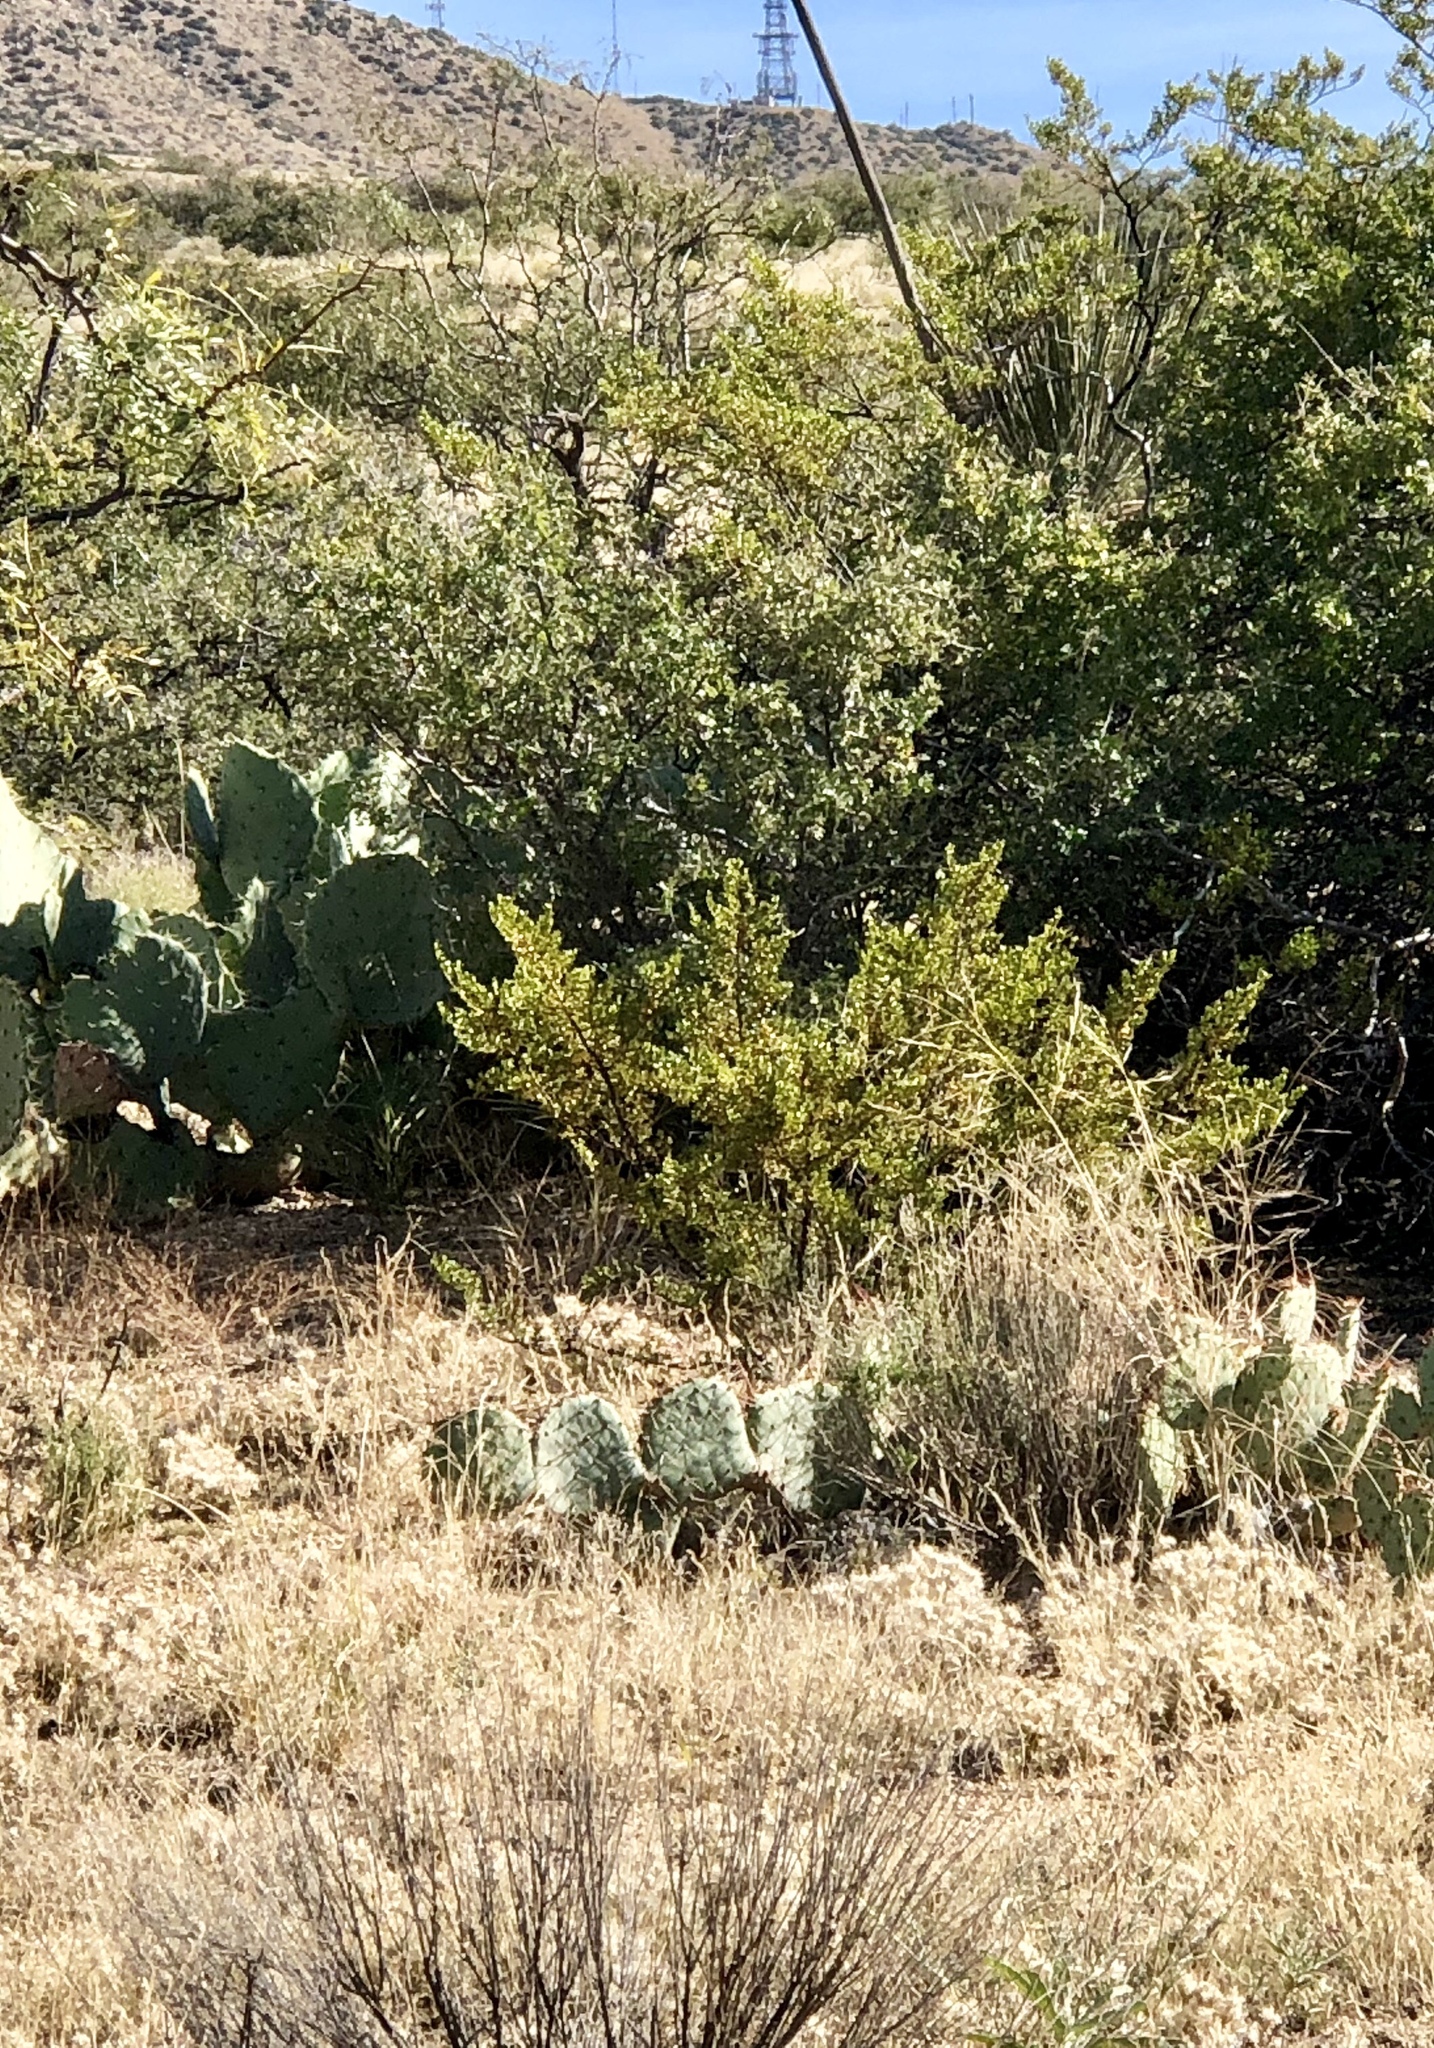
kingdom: Plantae
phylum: Tracheophyta
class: Magnoliopsida
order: Zygophyllales
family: Zygophyllaceae
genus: Larrea
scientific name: Larrea tridentata
